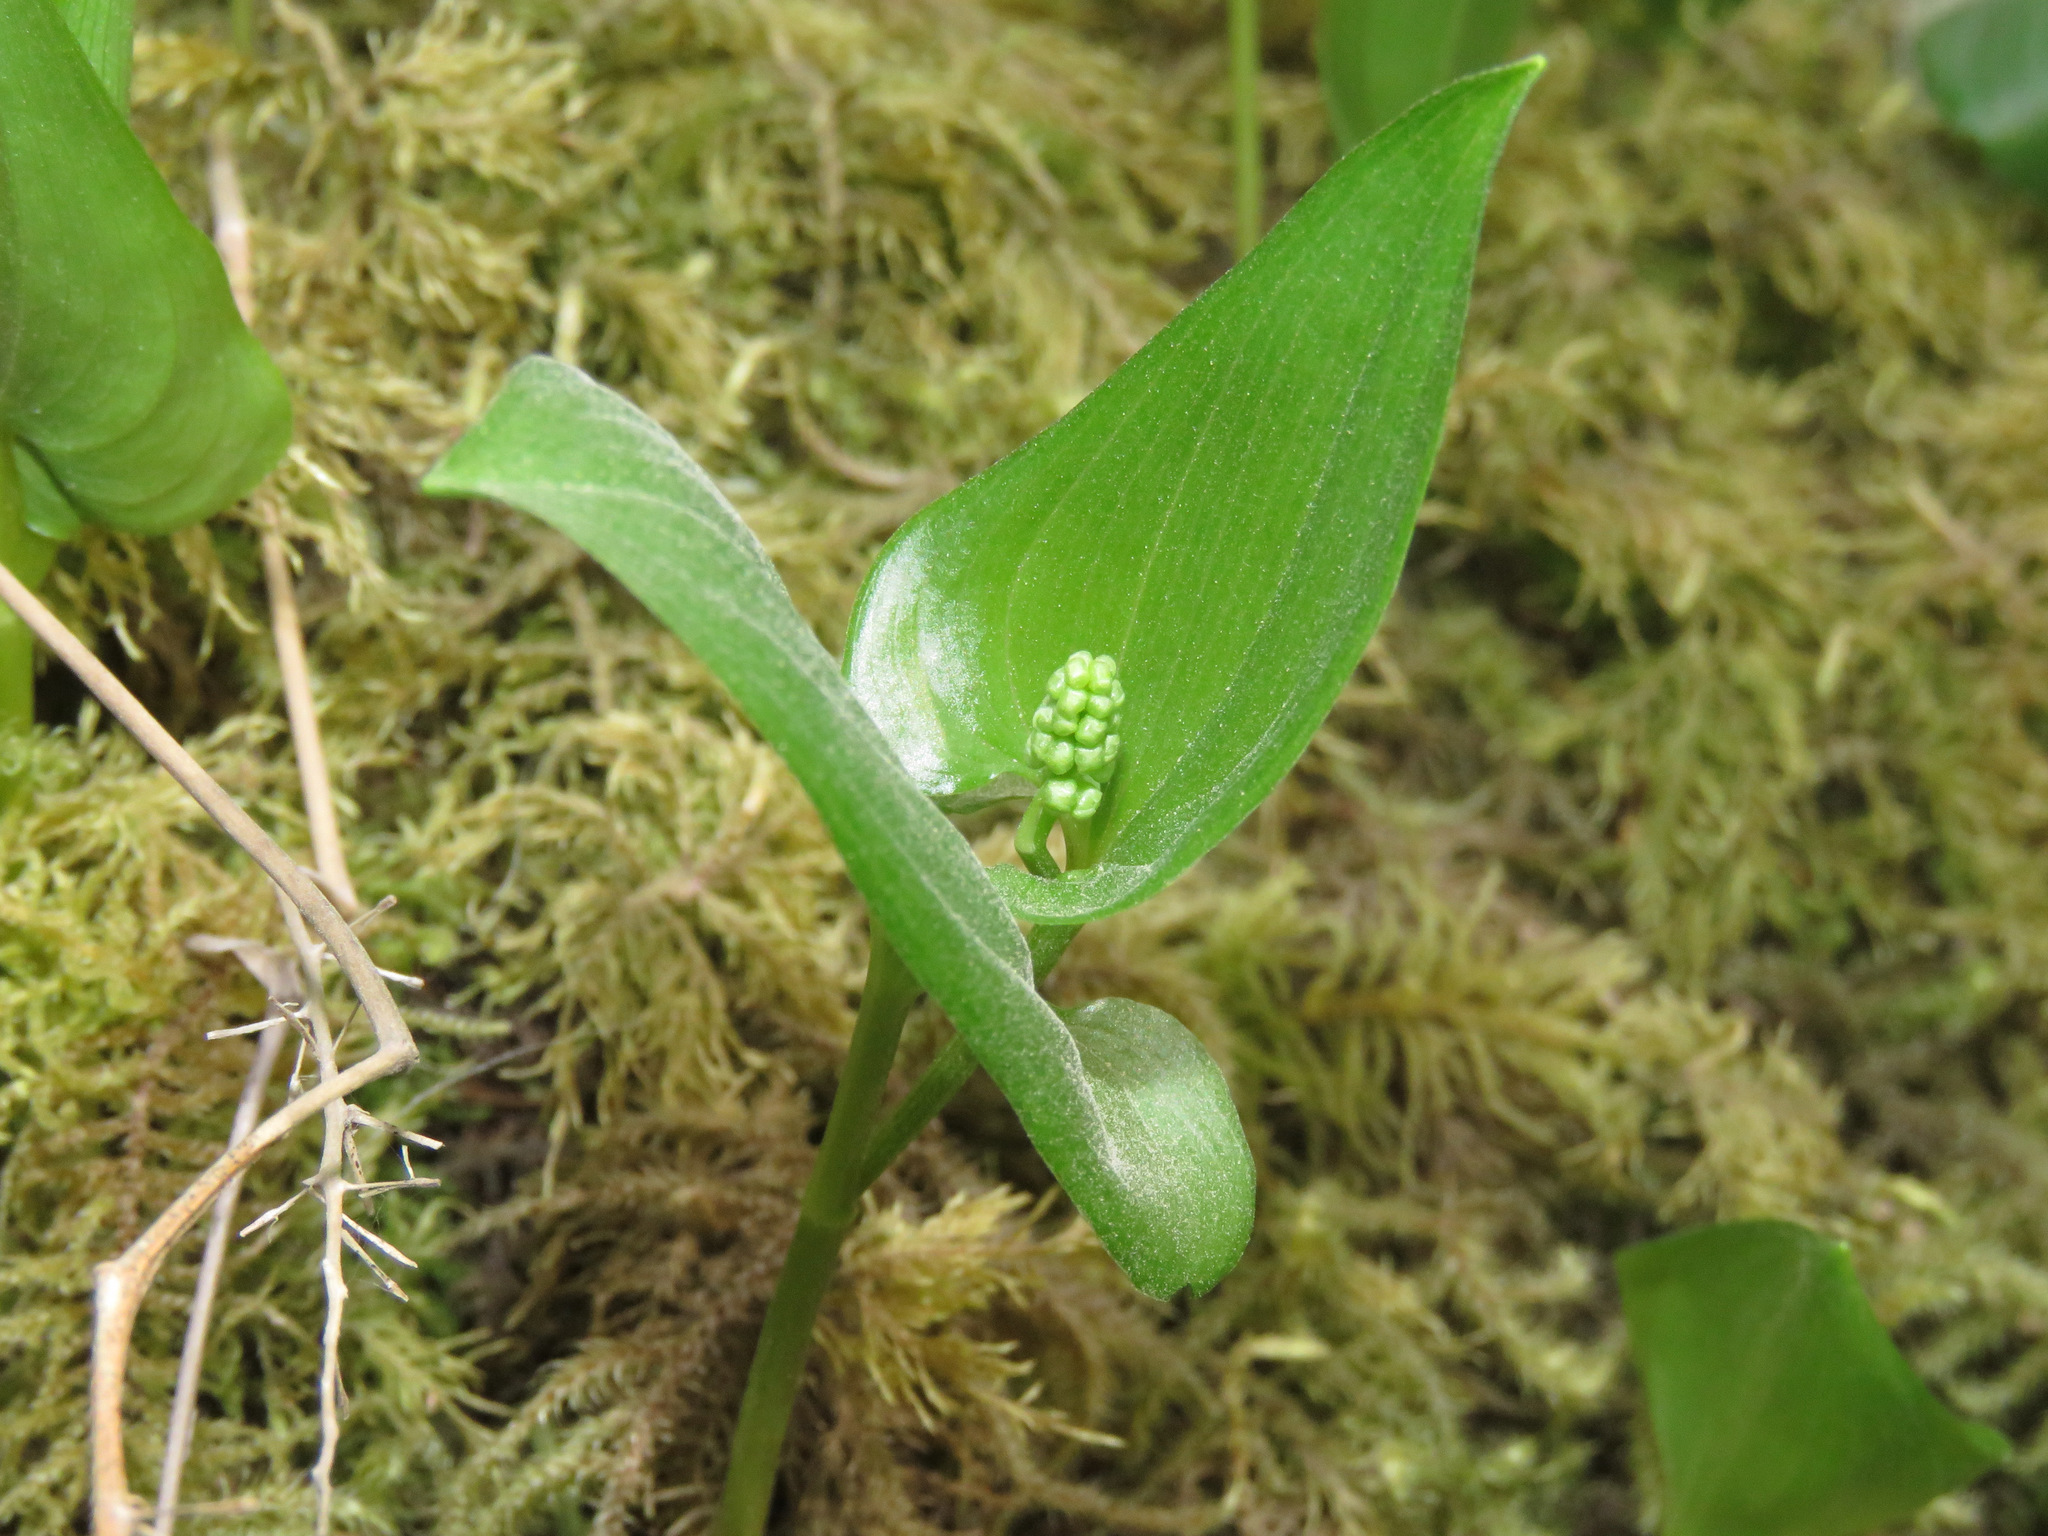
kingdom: Plantae
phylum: Tracheophyta
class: Liliopsida
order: Asparagales
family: Asparagaceae
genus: Maianthemum
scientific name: Maianthemum dilatatum
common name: False lily-of-the-valley
